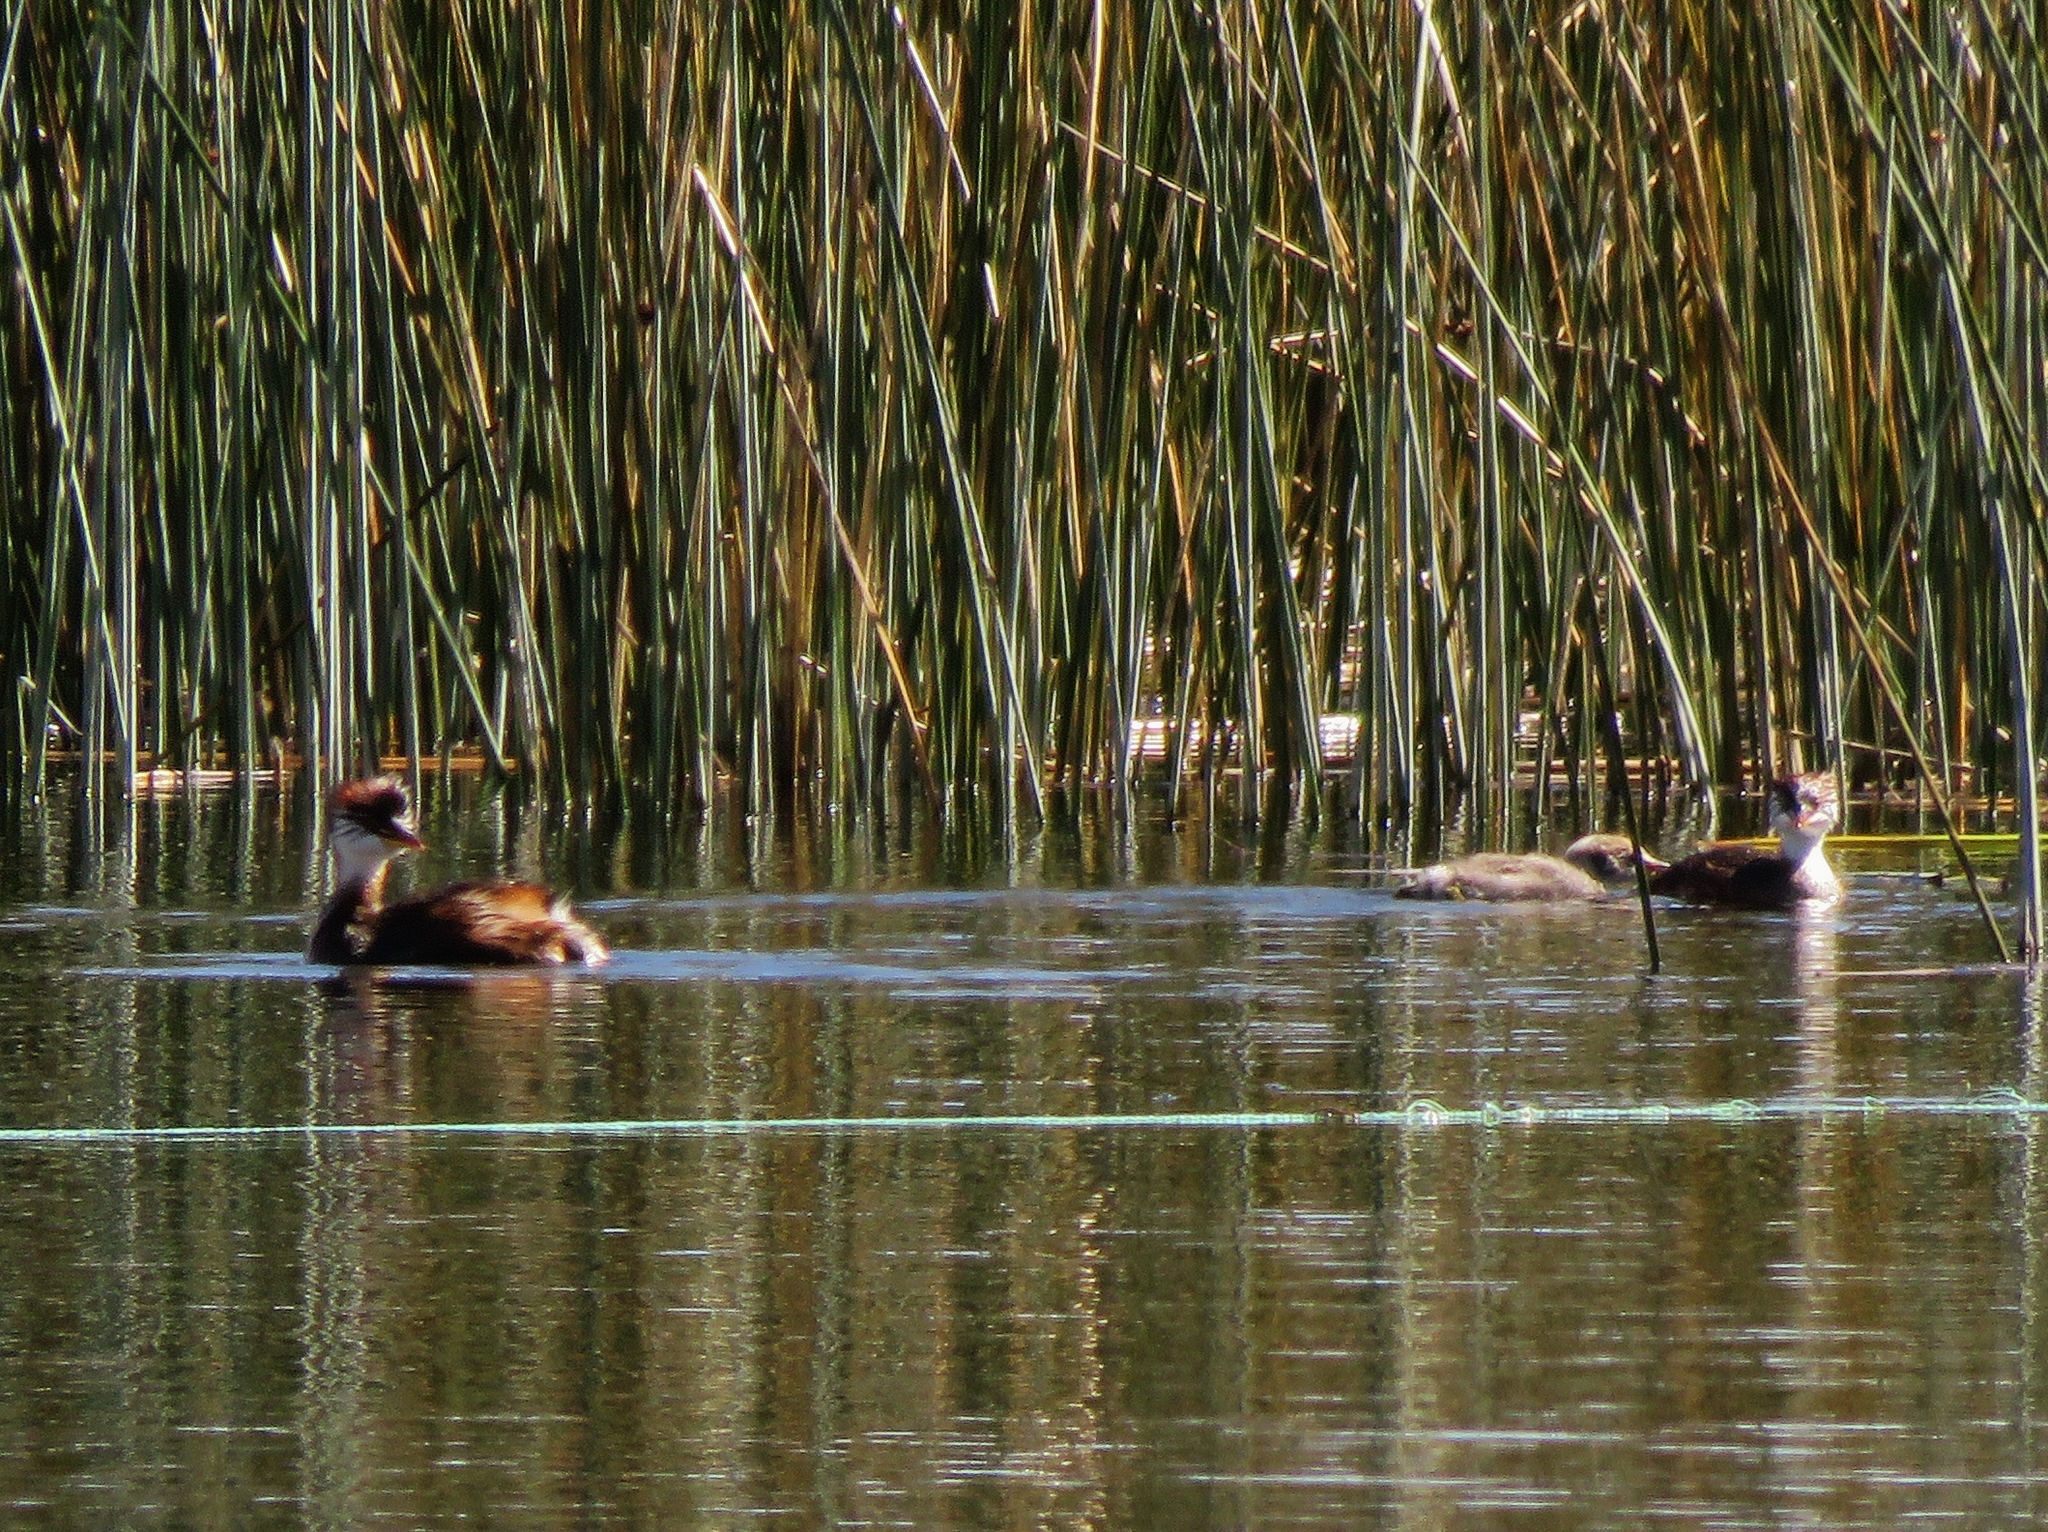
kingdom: Animalia
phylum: Chordata
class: Aves
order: Podicipediformes
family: Podicipedidae
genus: Rollandia
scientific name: Rollandia microptera
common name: Titicaca grebe
